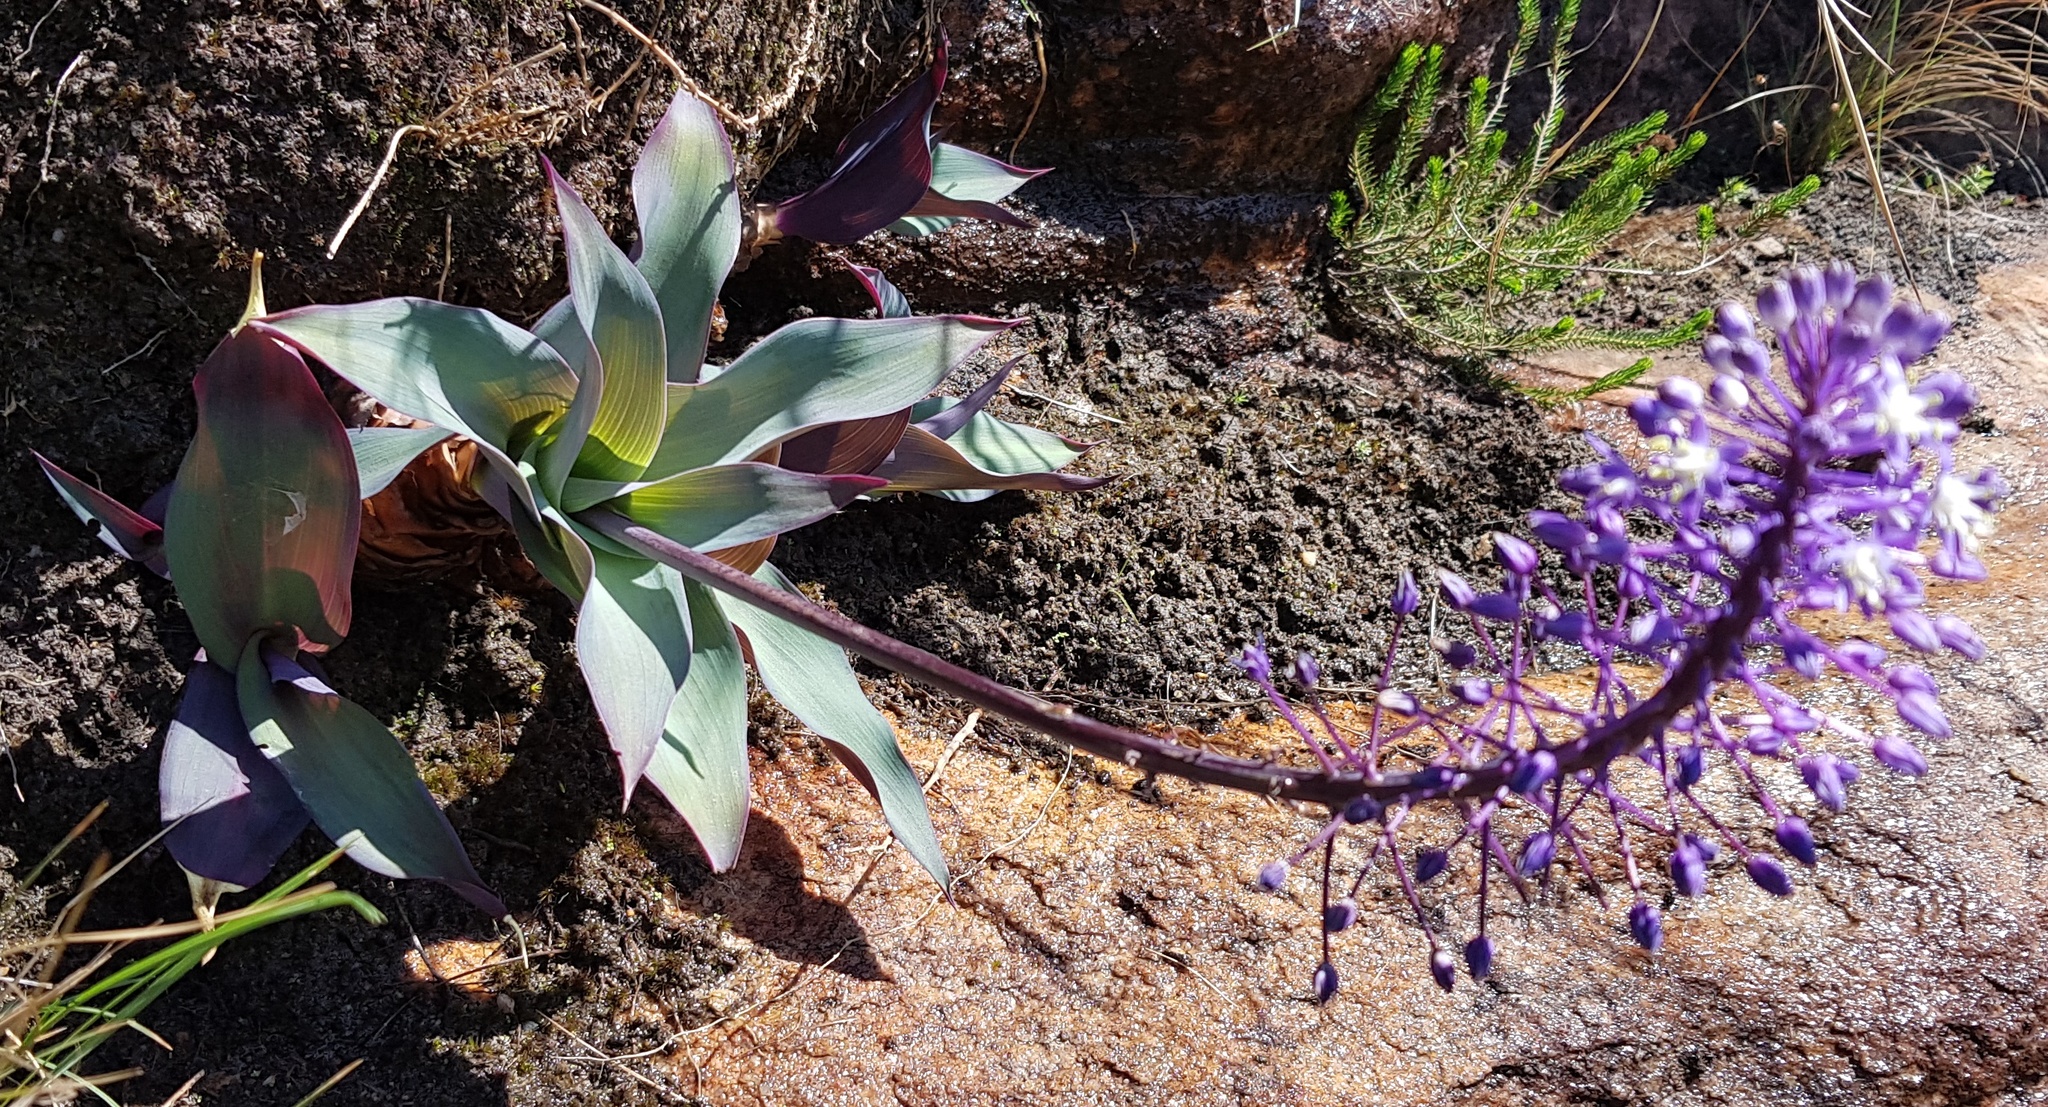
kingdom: Plantae
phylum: Tracheophyta
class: Liliopsida
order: Asparagales
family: Asparagaceae
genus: Merwilla
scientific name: Merwilla plumbea
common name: Blue-squill
